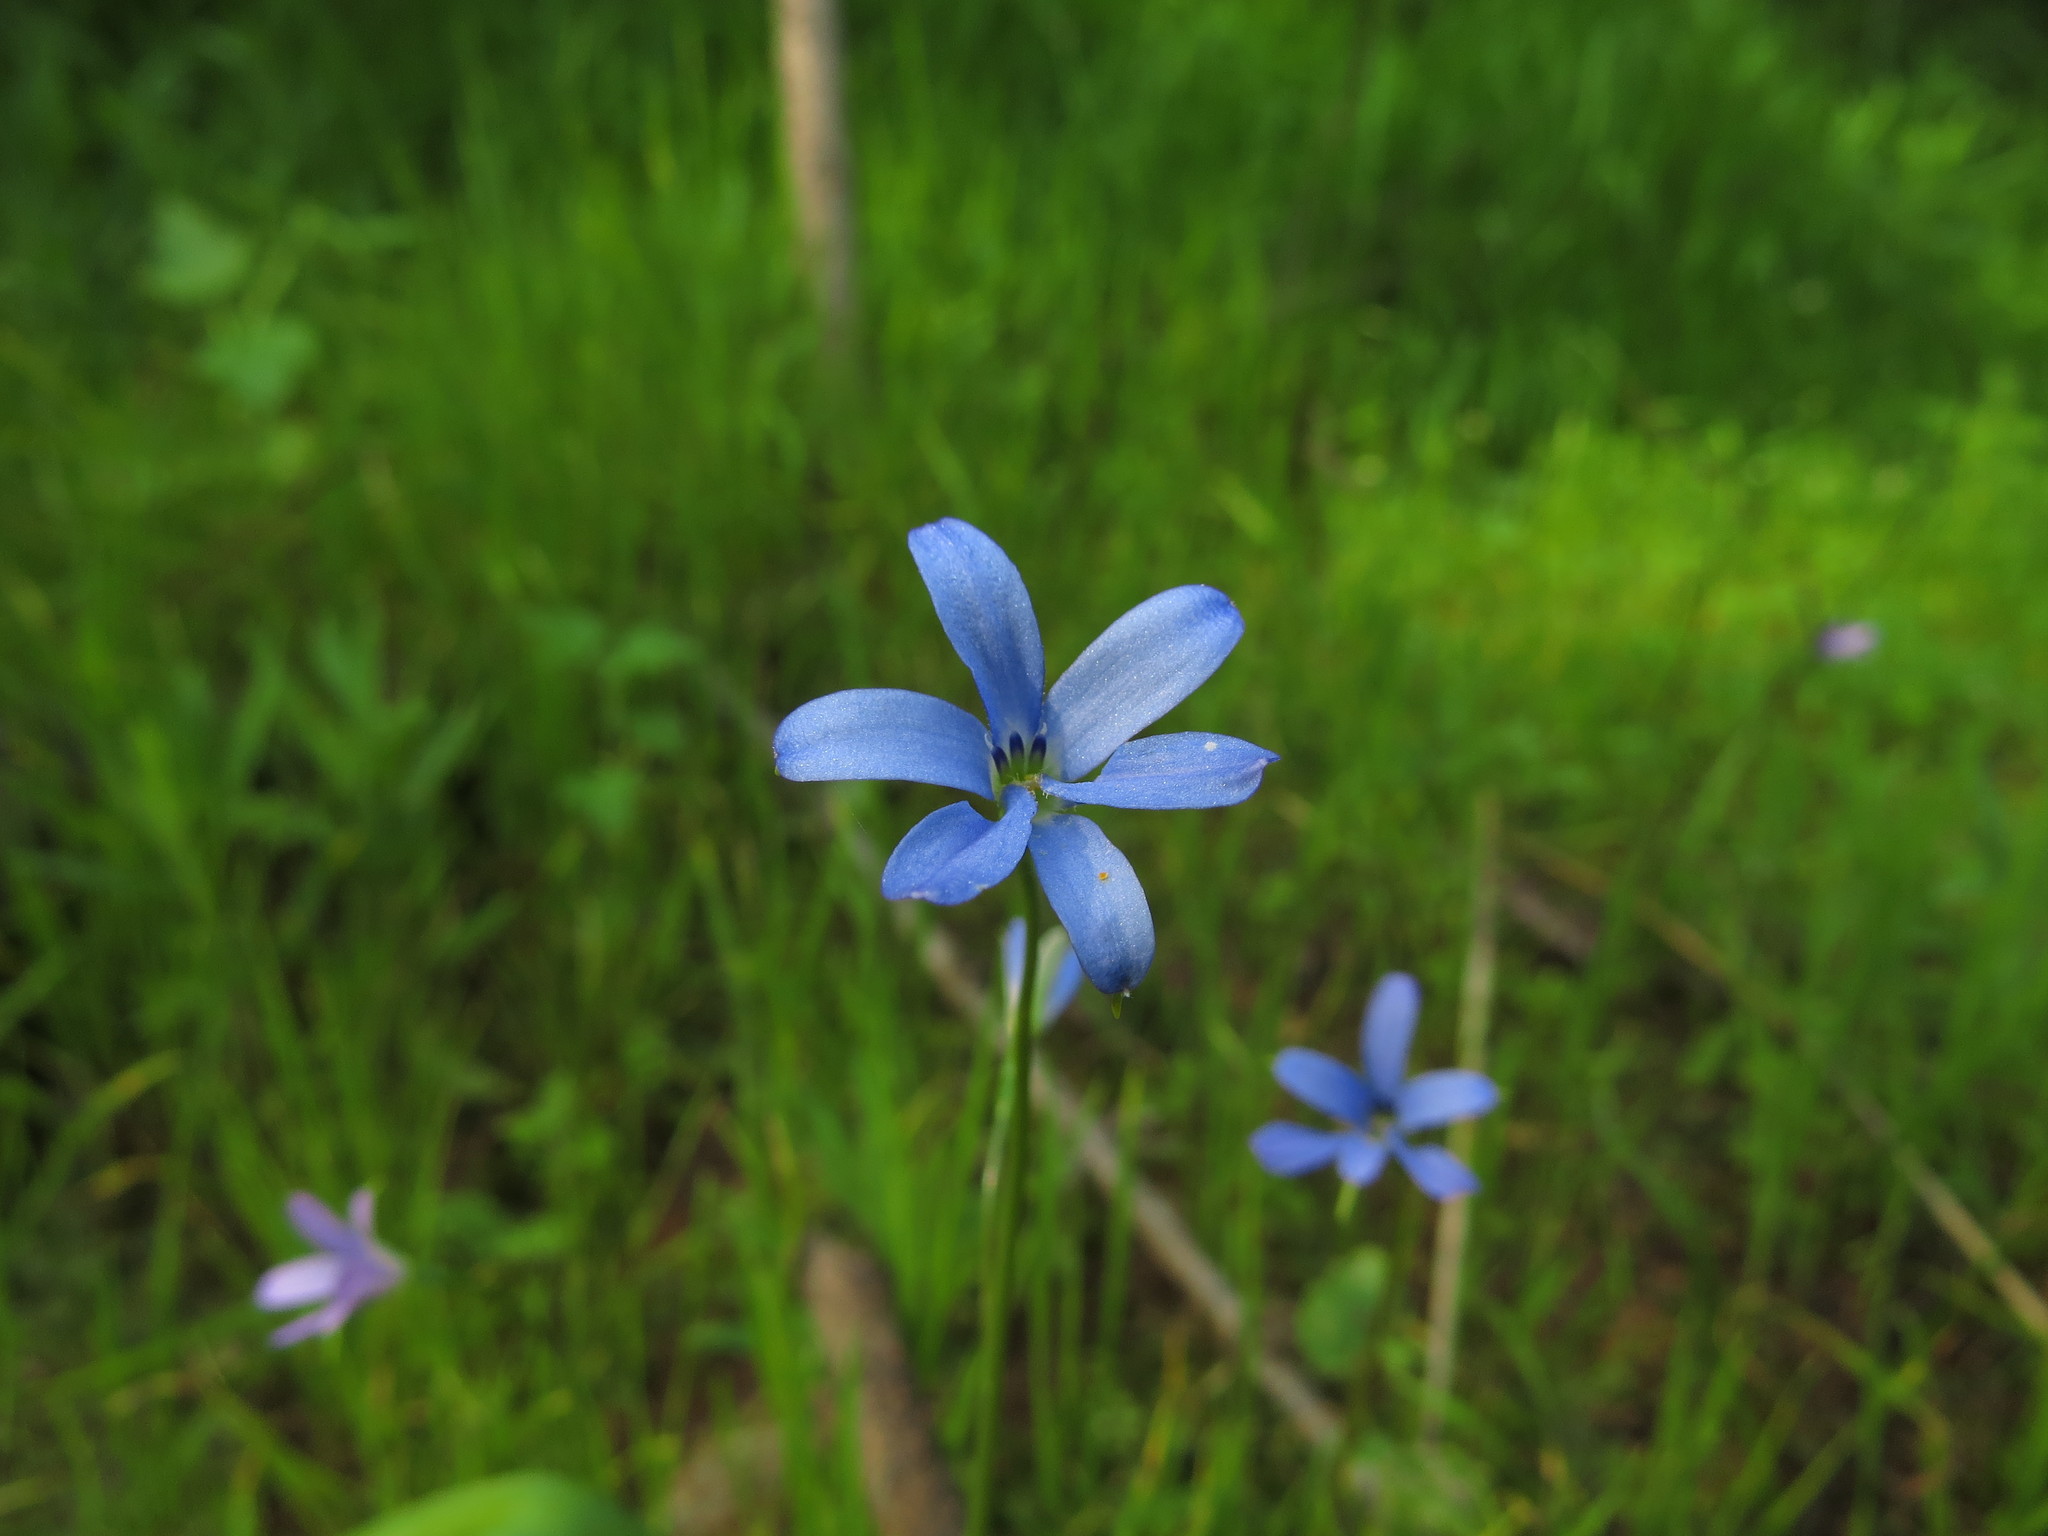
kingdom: Plantae
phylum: Tracheophyta
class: Liliopsida
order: Asparagales
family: Tecophilaeaceae
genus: Tecophilaea
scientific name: Tecophilaea violiflora
